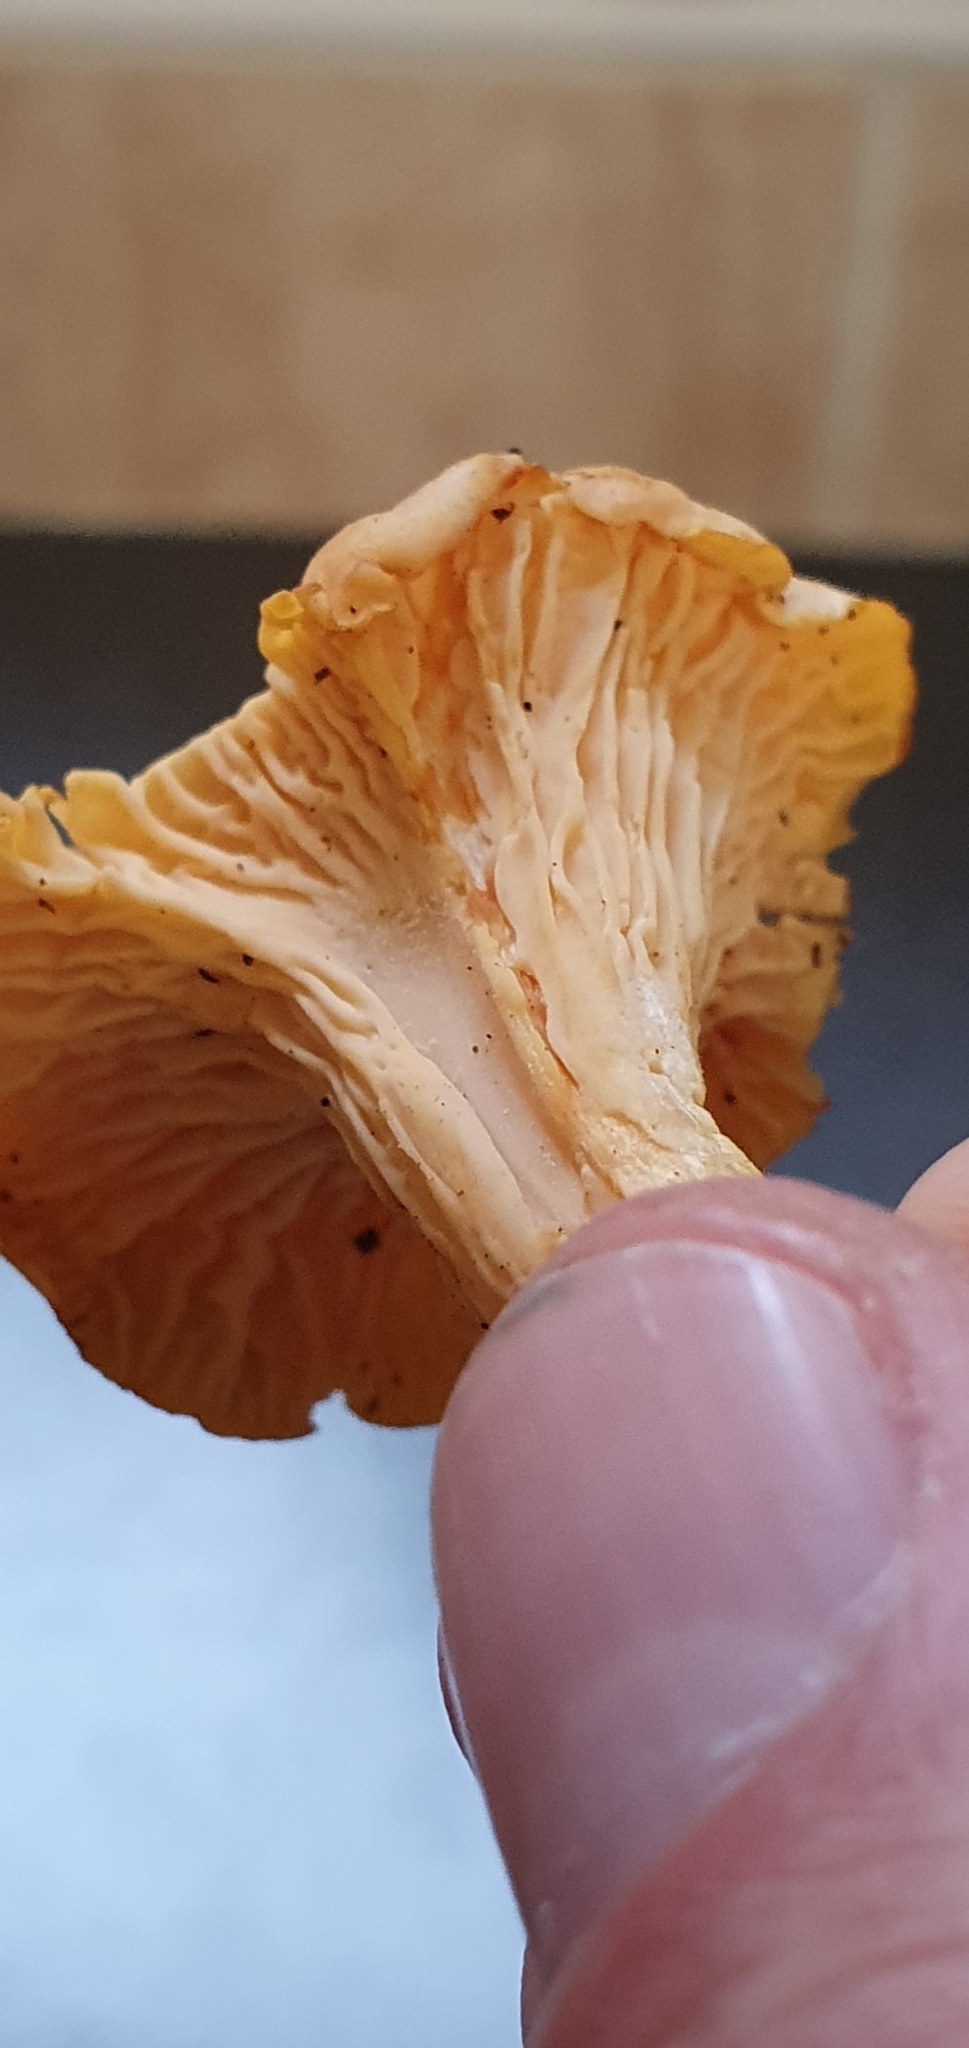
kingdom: Fungi
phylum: Basidiomycota
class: Agaricomycetes
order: Cantharellales
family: Hydnaceae
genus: Cantharellus
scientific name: Cantharellus cibarius
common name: Chanterelle
